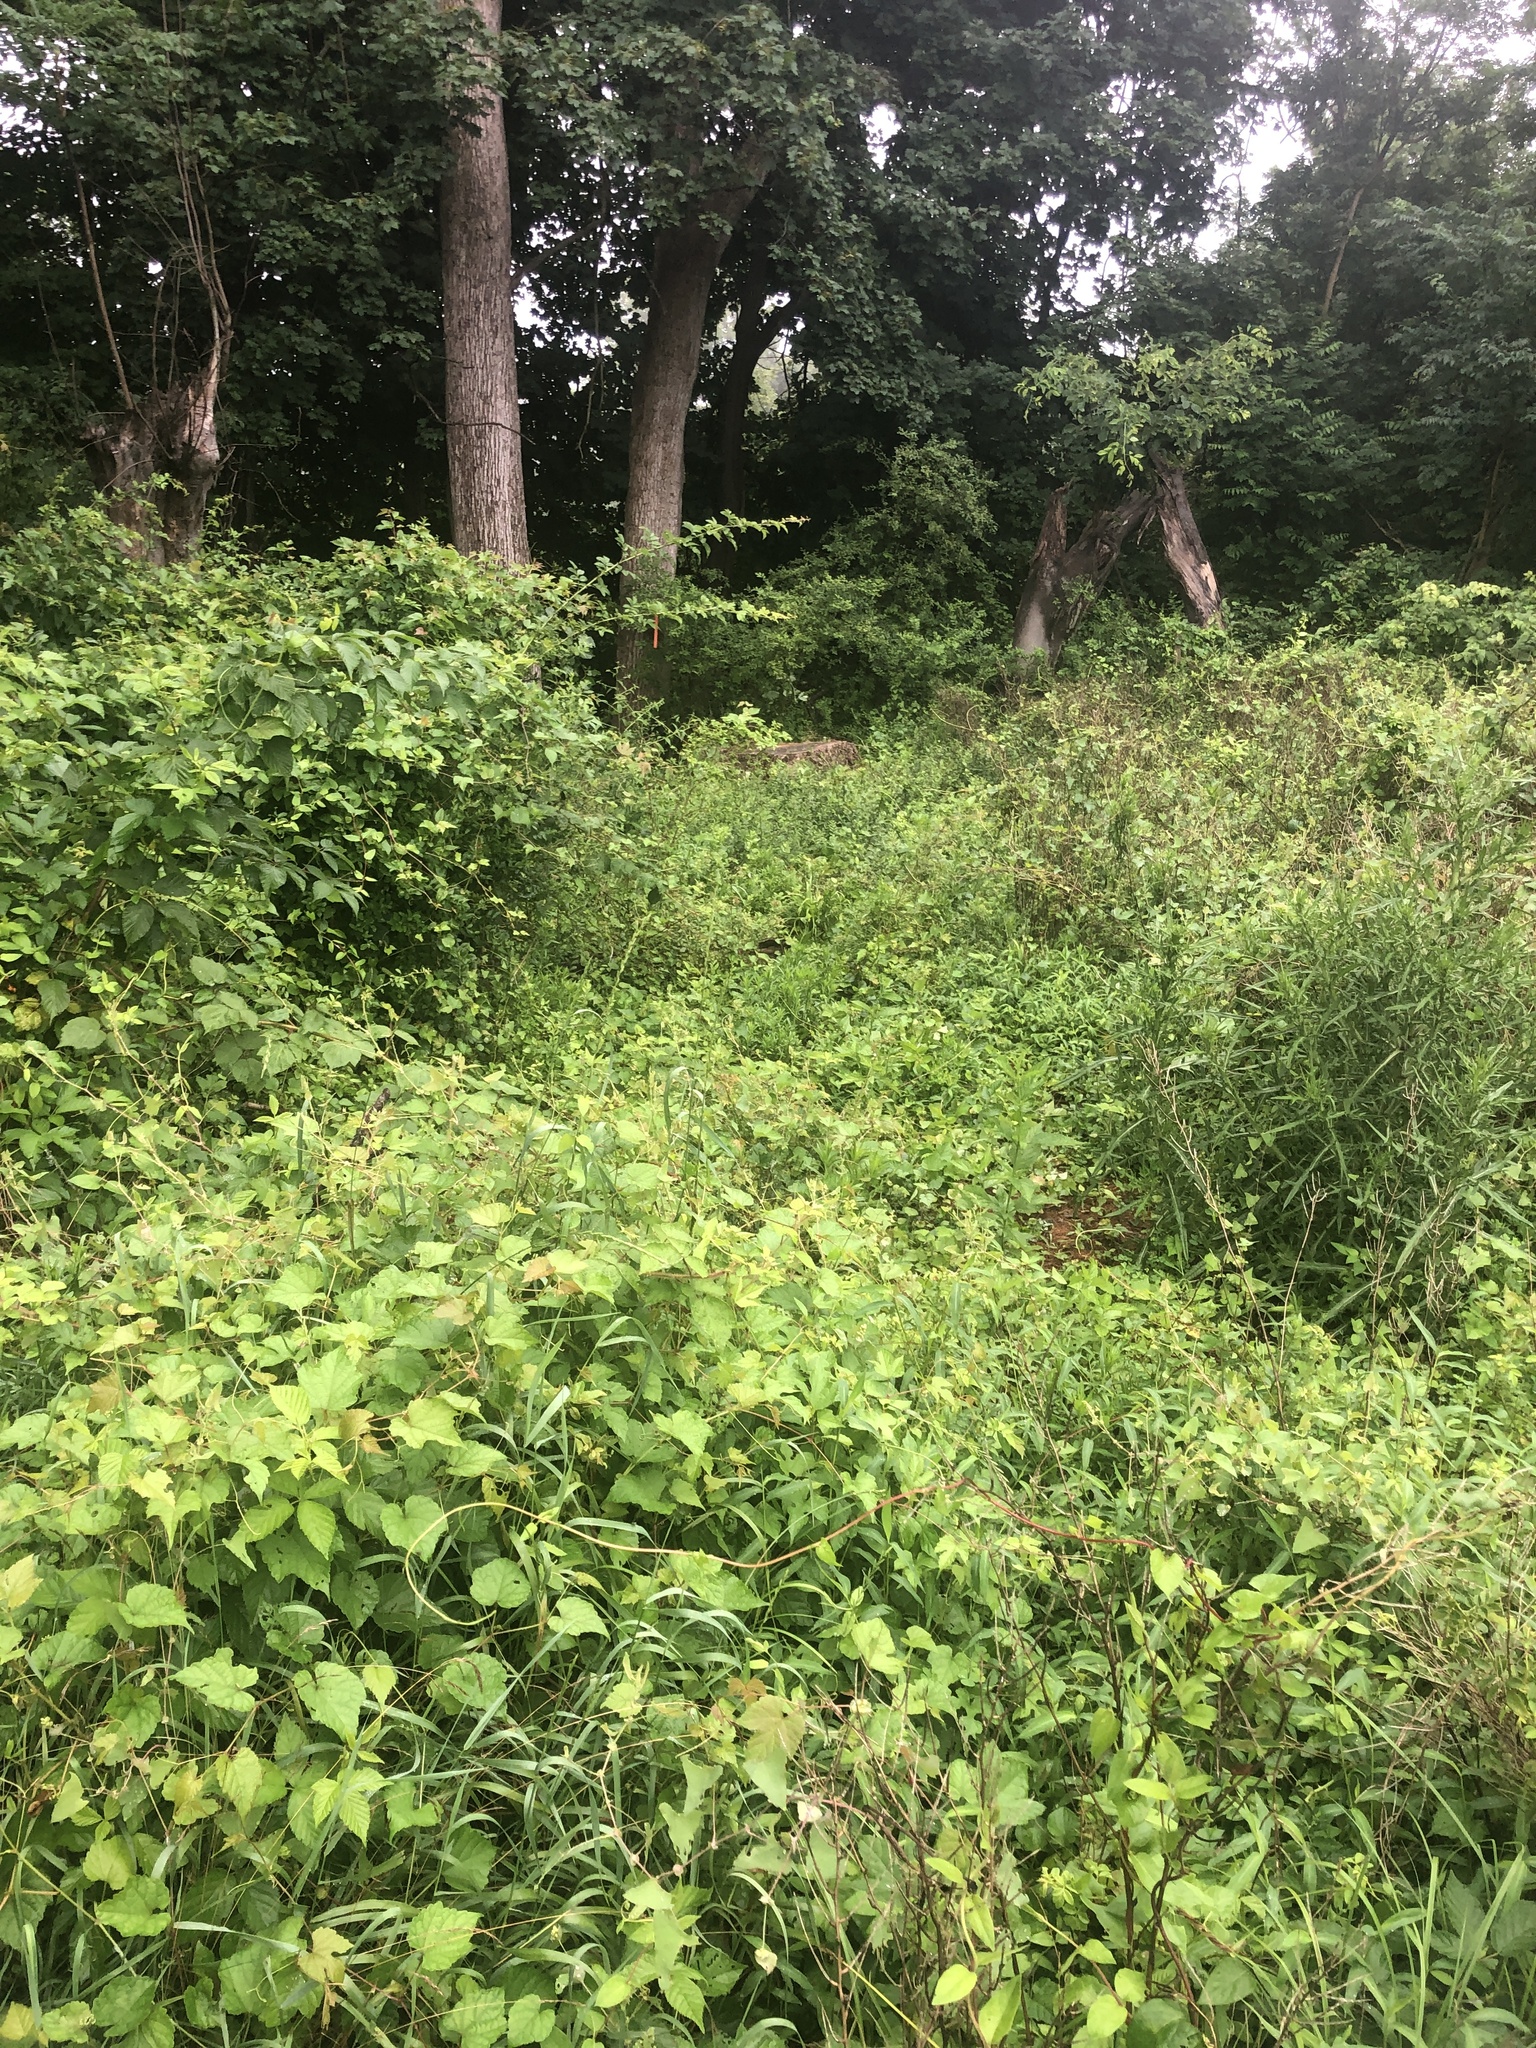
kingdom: Plantae
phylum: Tracheophyta
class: Magnoliopsida
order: Vitales
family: Vitaceae
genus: Ampelopsis
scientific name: Ampelopsis glandulosa
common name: Amur peppervine
